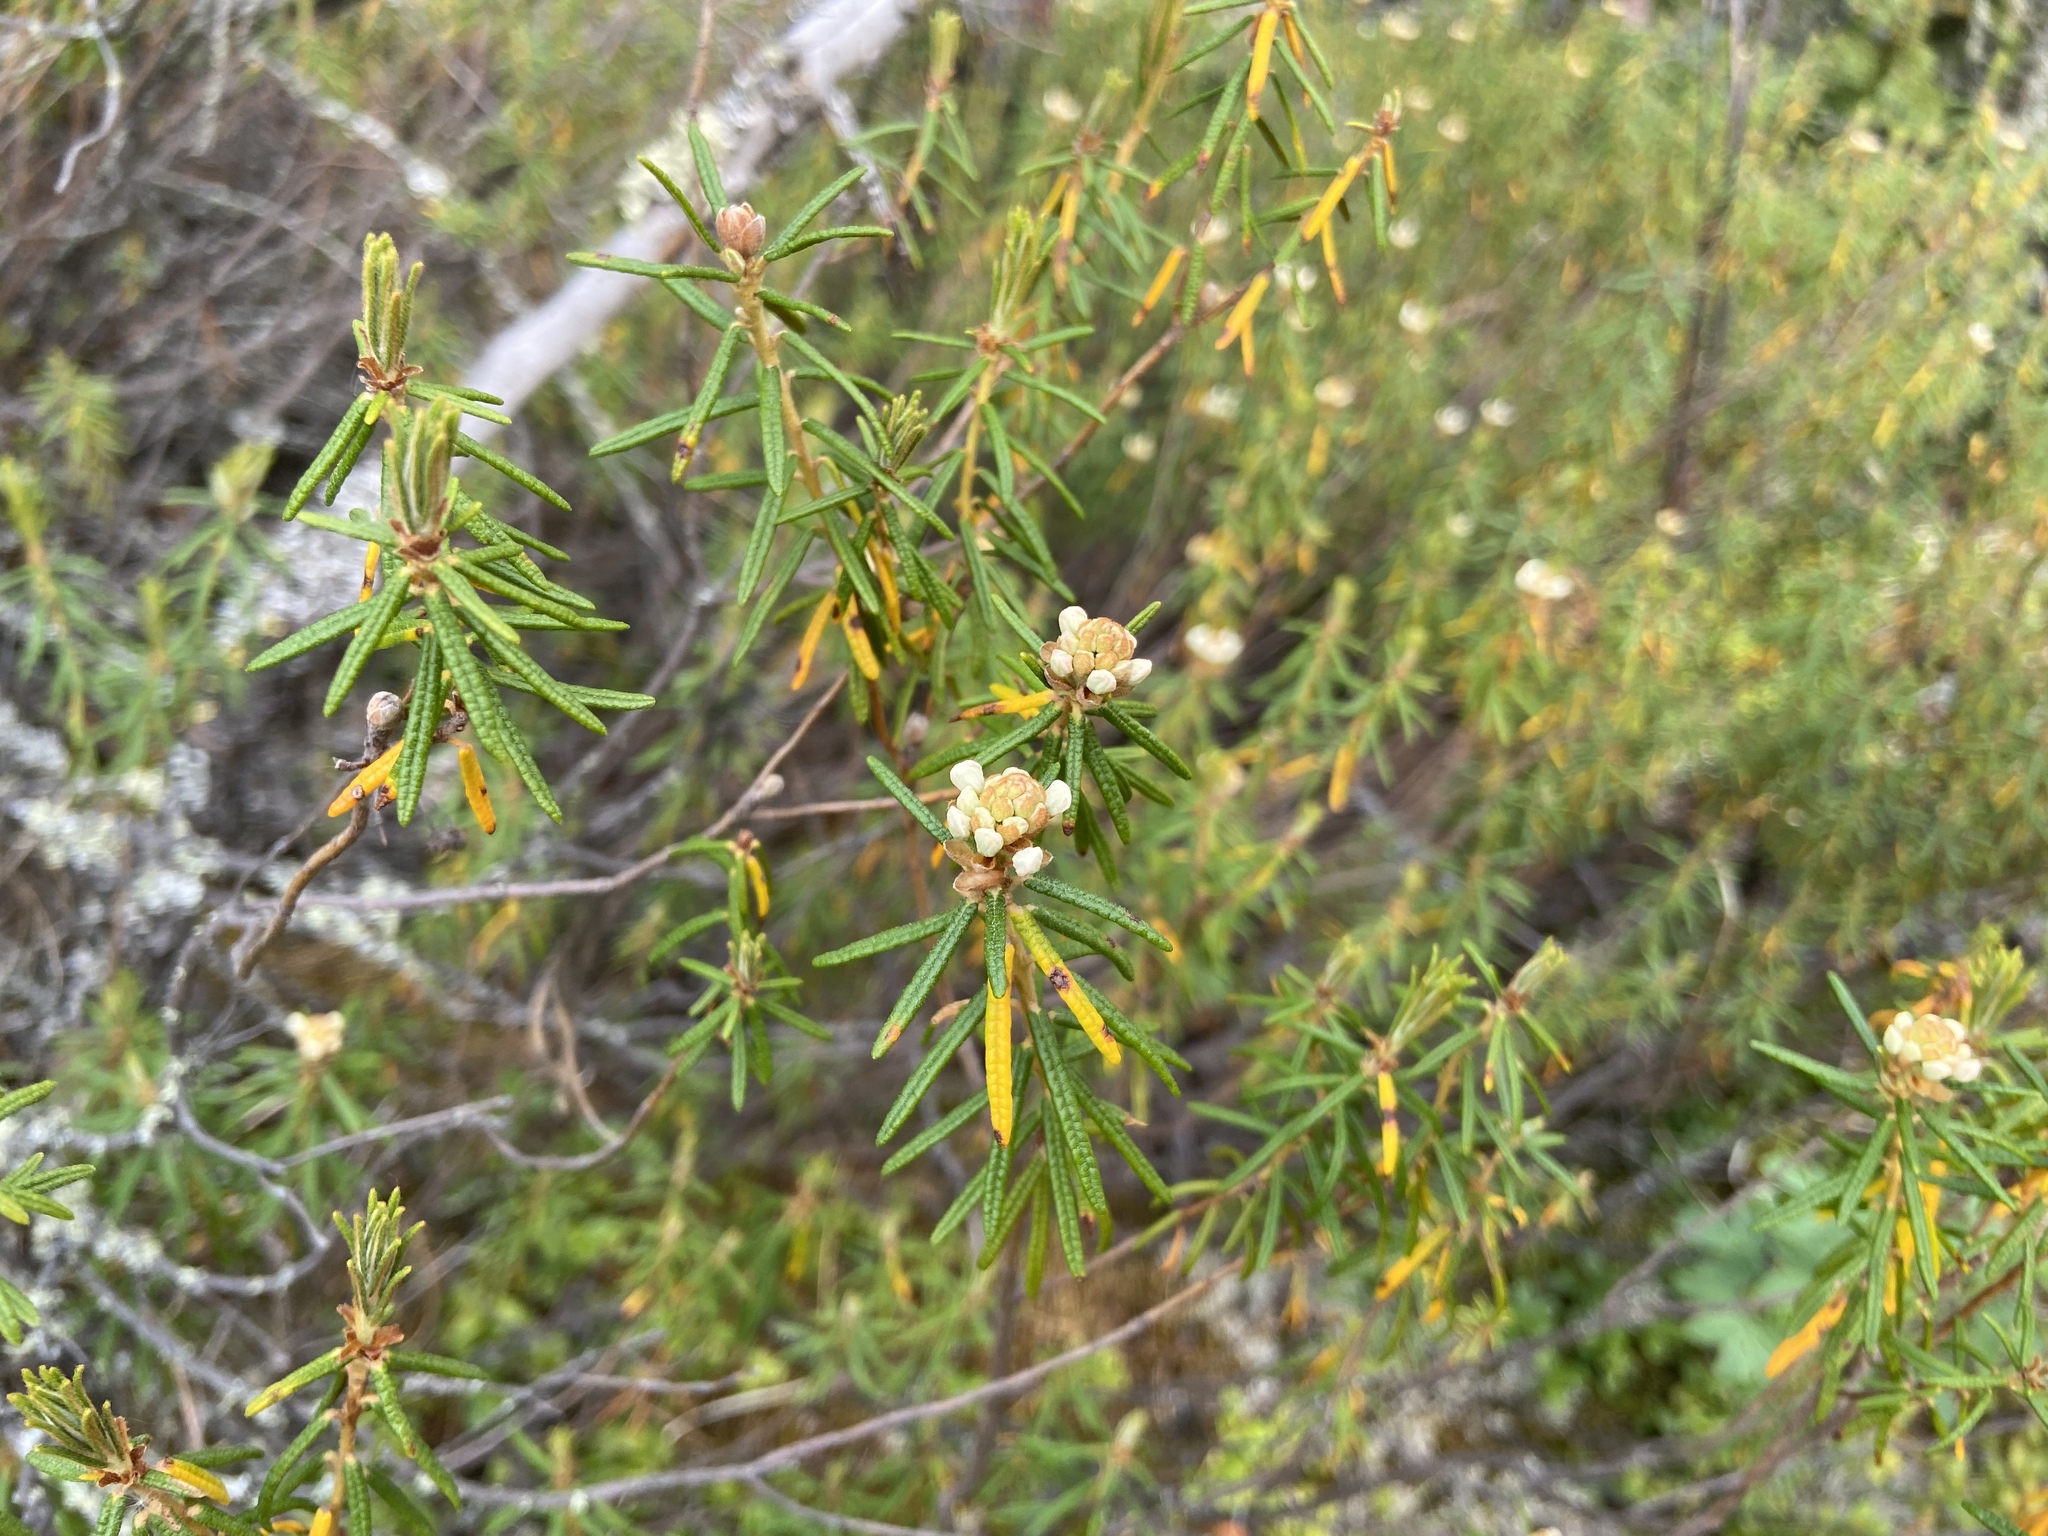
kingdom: Plantae
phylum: Tracheophyta
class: Magnoliopsida
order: Ericales
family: Ericaceae
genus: Rhododendron
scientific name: Rhododendron tomentosum
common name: Marsh labrador tea
